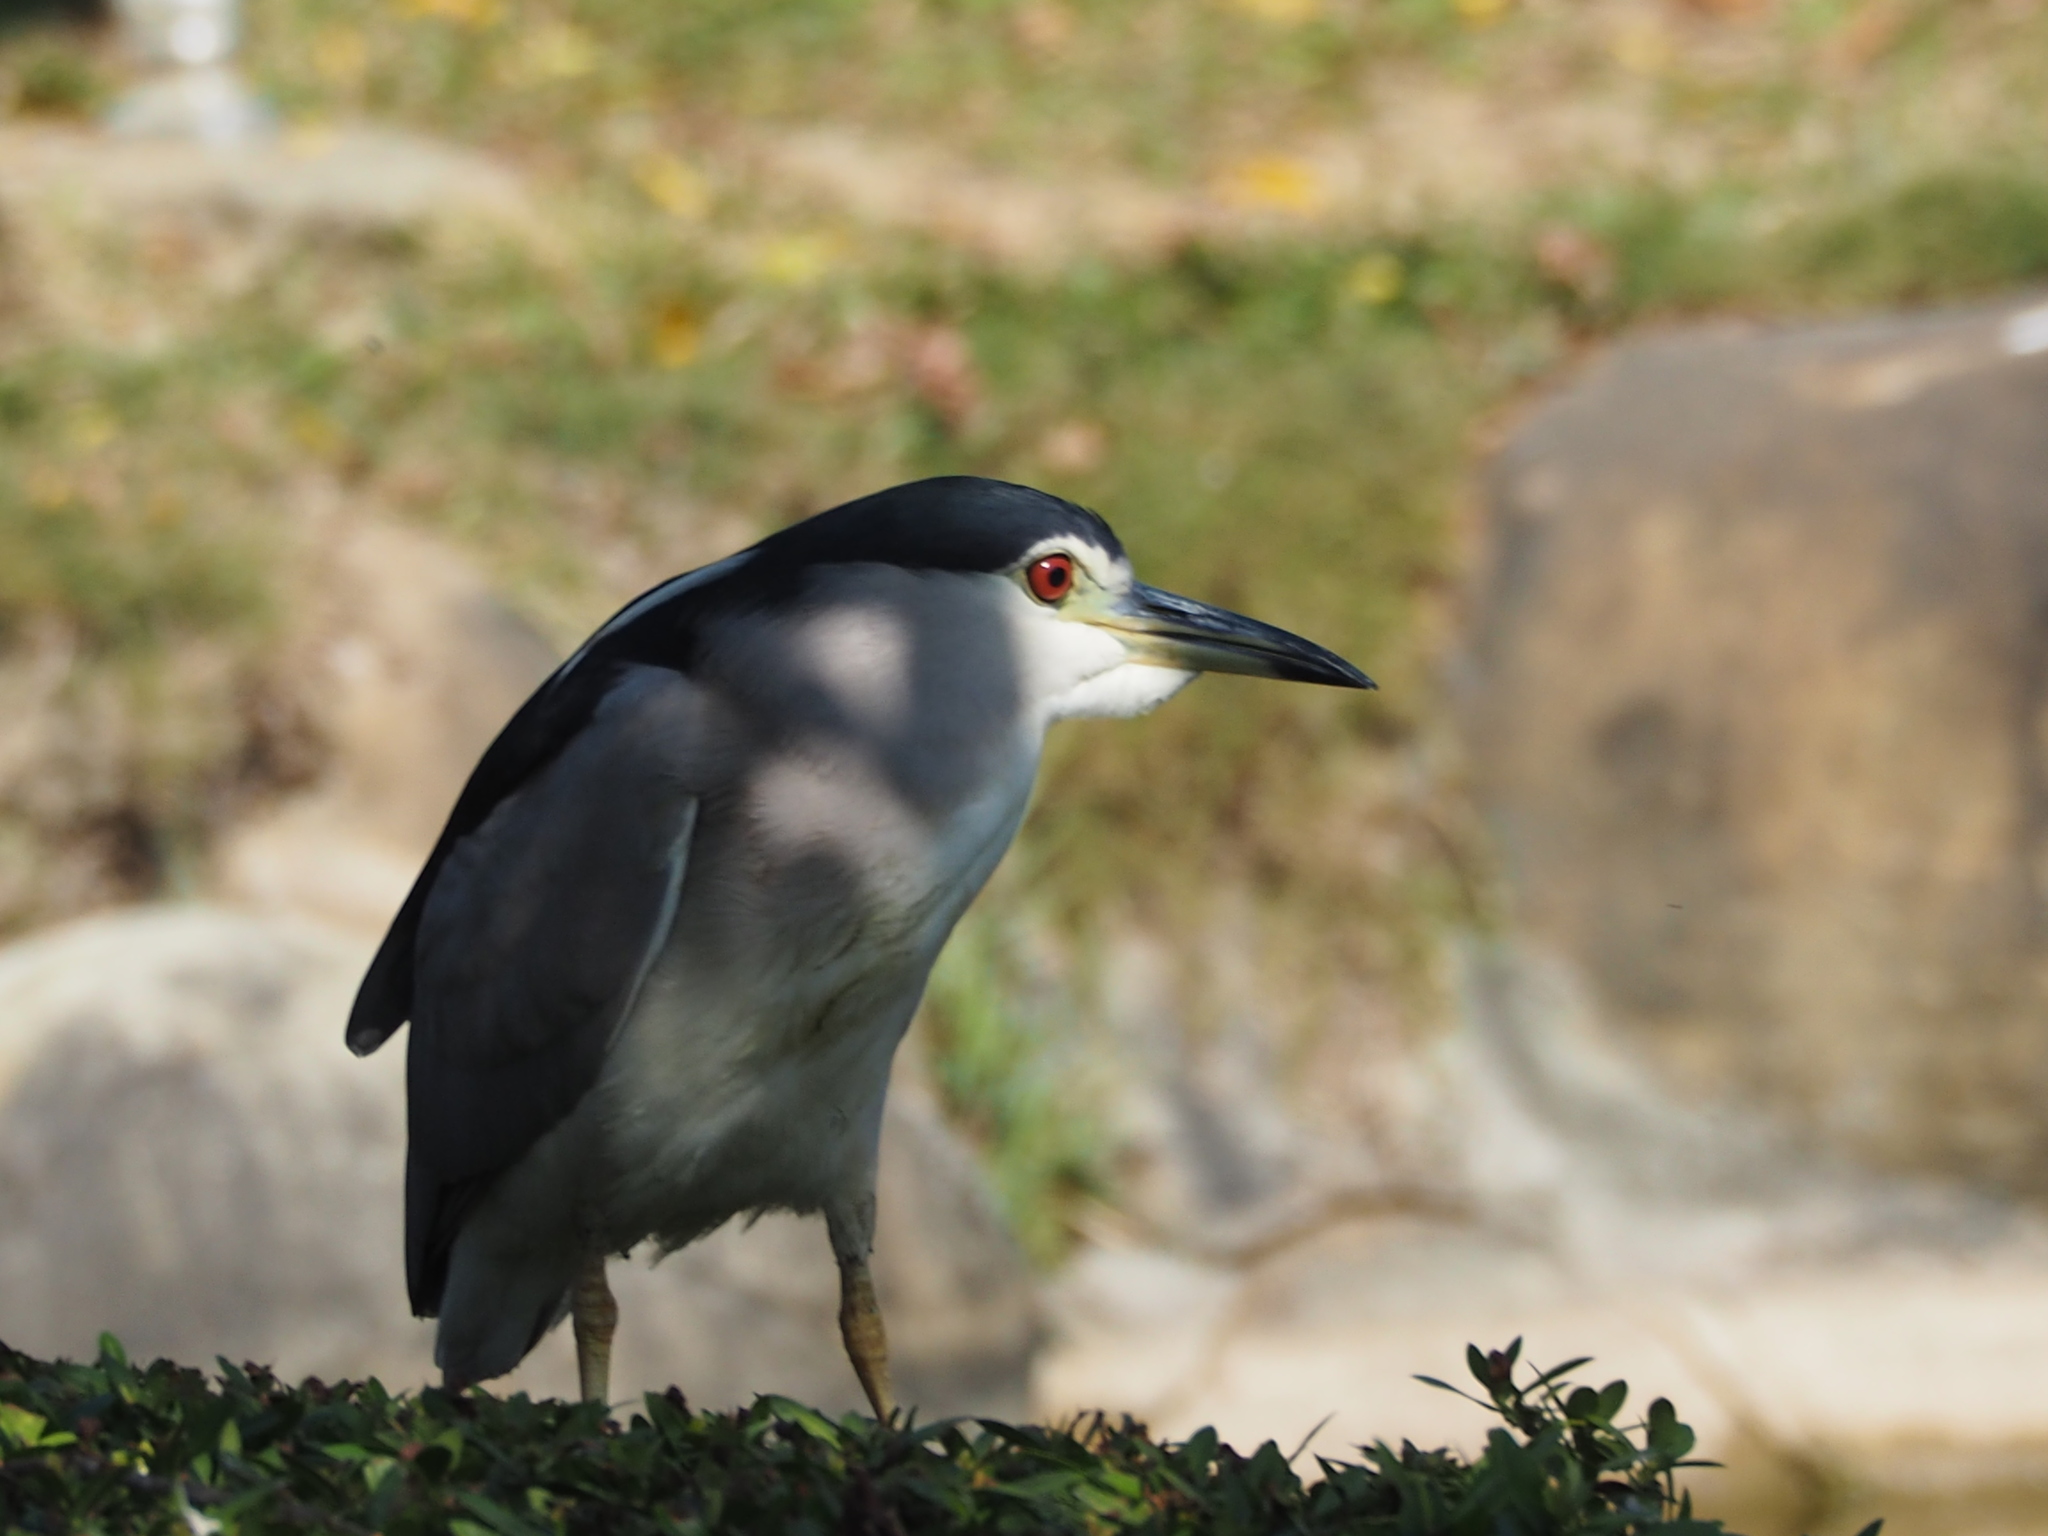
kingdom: Animalia
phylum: Chordata
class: Aves
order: Pelecaniformes
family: Ardeidae
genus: Nycticorax
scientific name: Nycticorax nycticorax
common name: Black-crowned night heron
